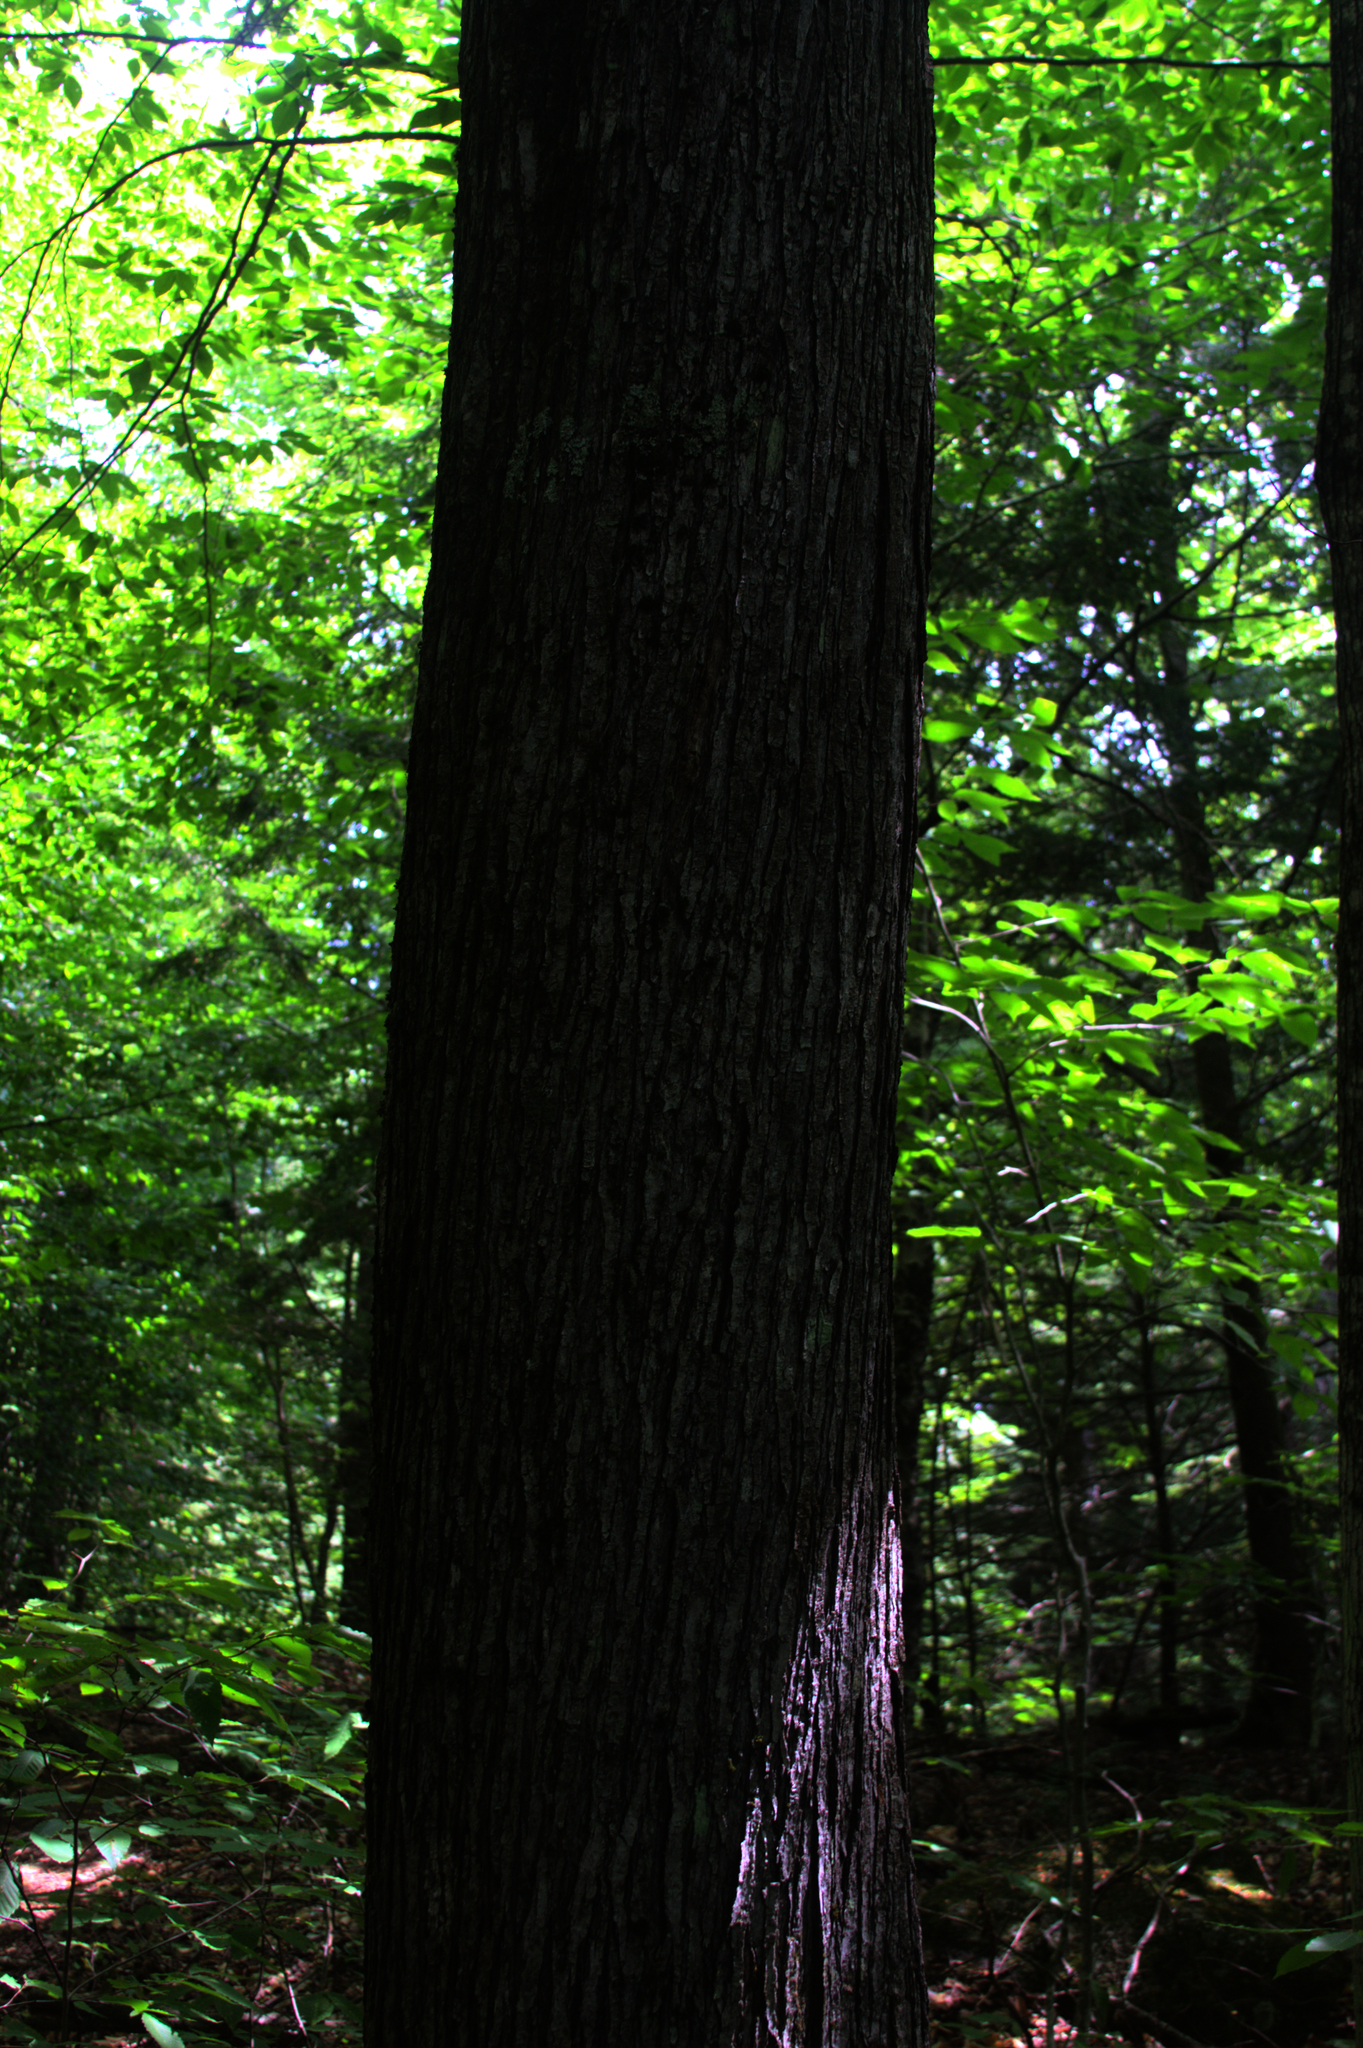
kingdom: Plantae
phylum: Tracheophyta
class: Magnoliopsida
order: Sapindales
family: Sapindaceae
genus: Acer
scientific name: Acer rubrum
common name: Red maple
